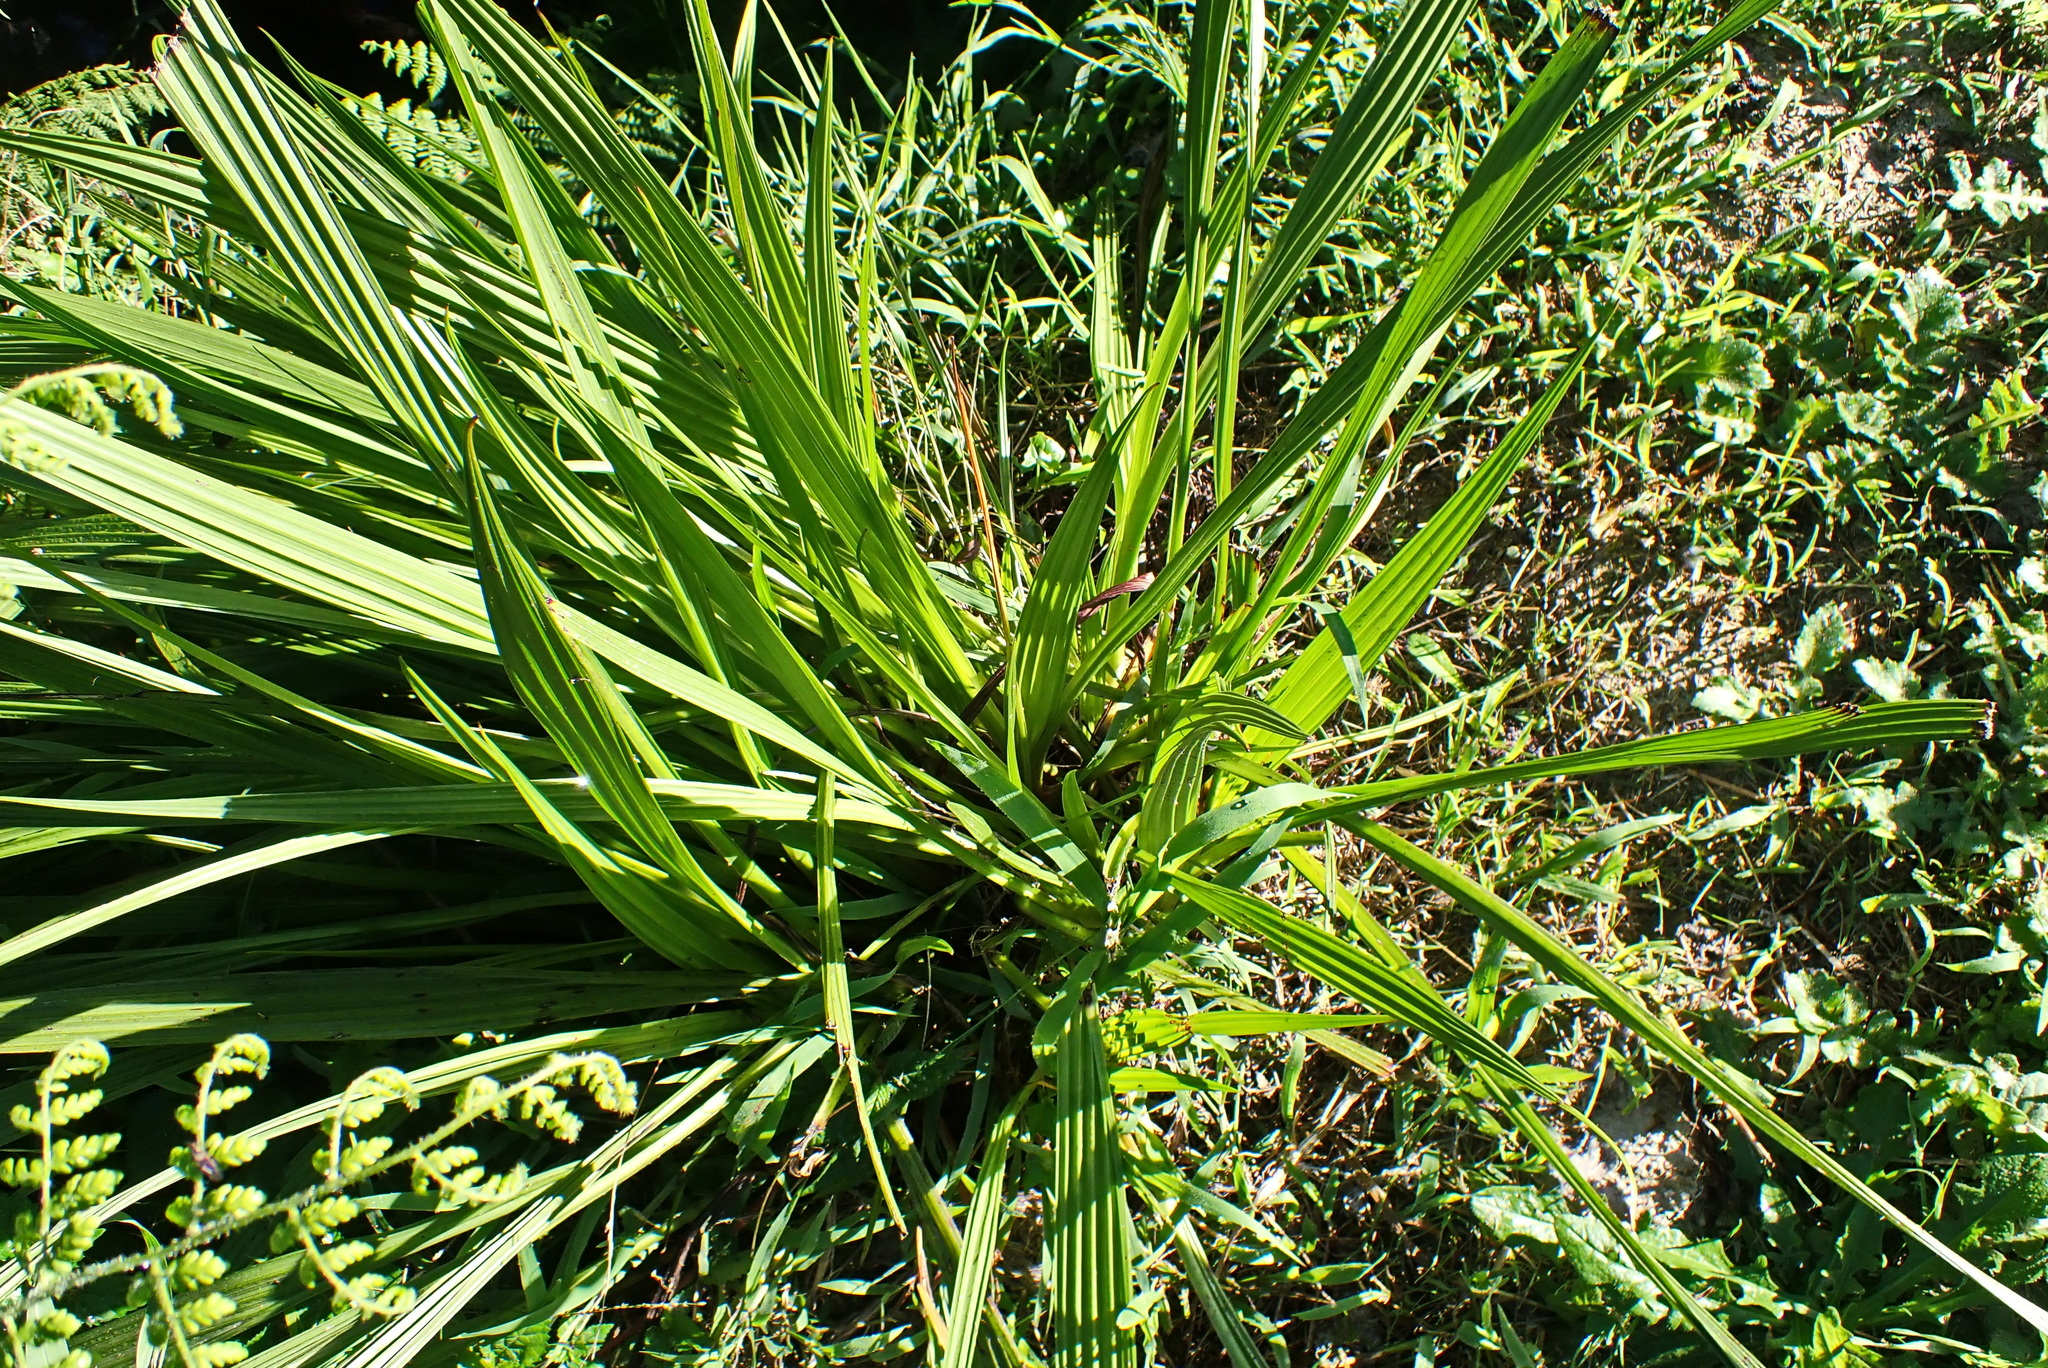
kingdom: Plantae
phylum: Tracheophyta
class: Liliopsida
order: Commelinales
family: Haemodoraceae
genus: Wachendorfia
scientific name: Wachendorfia thyrsiflora
